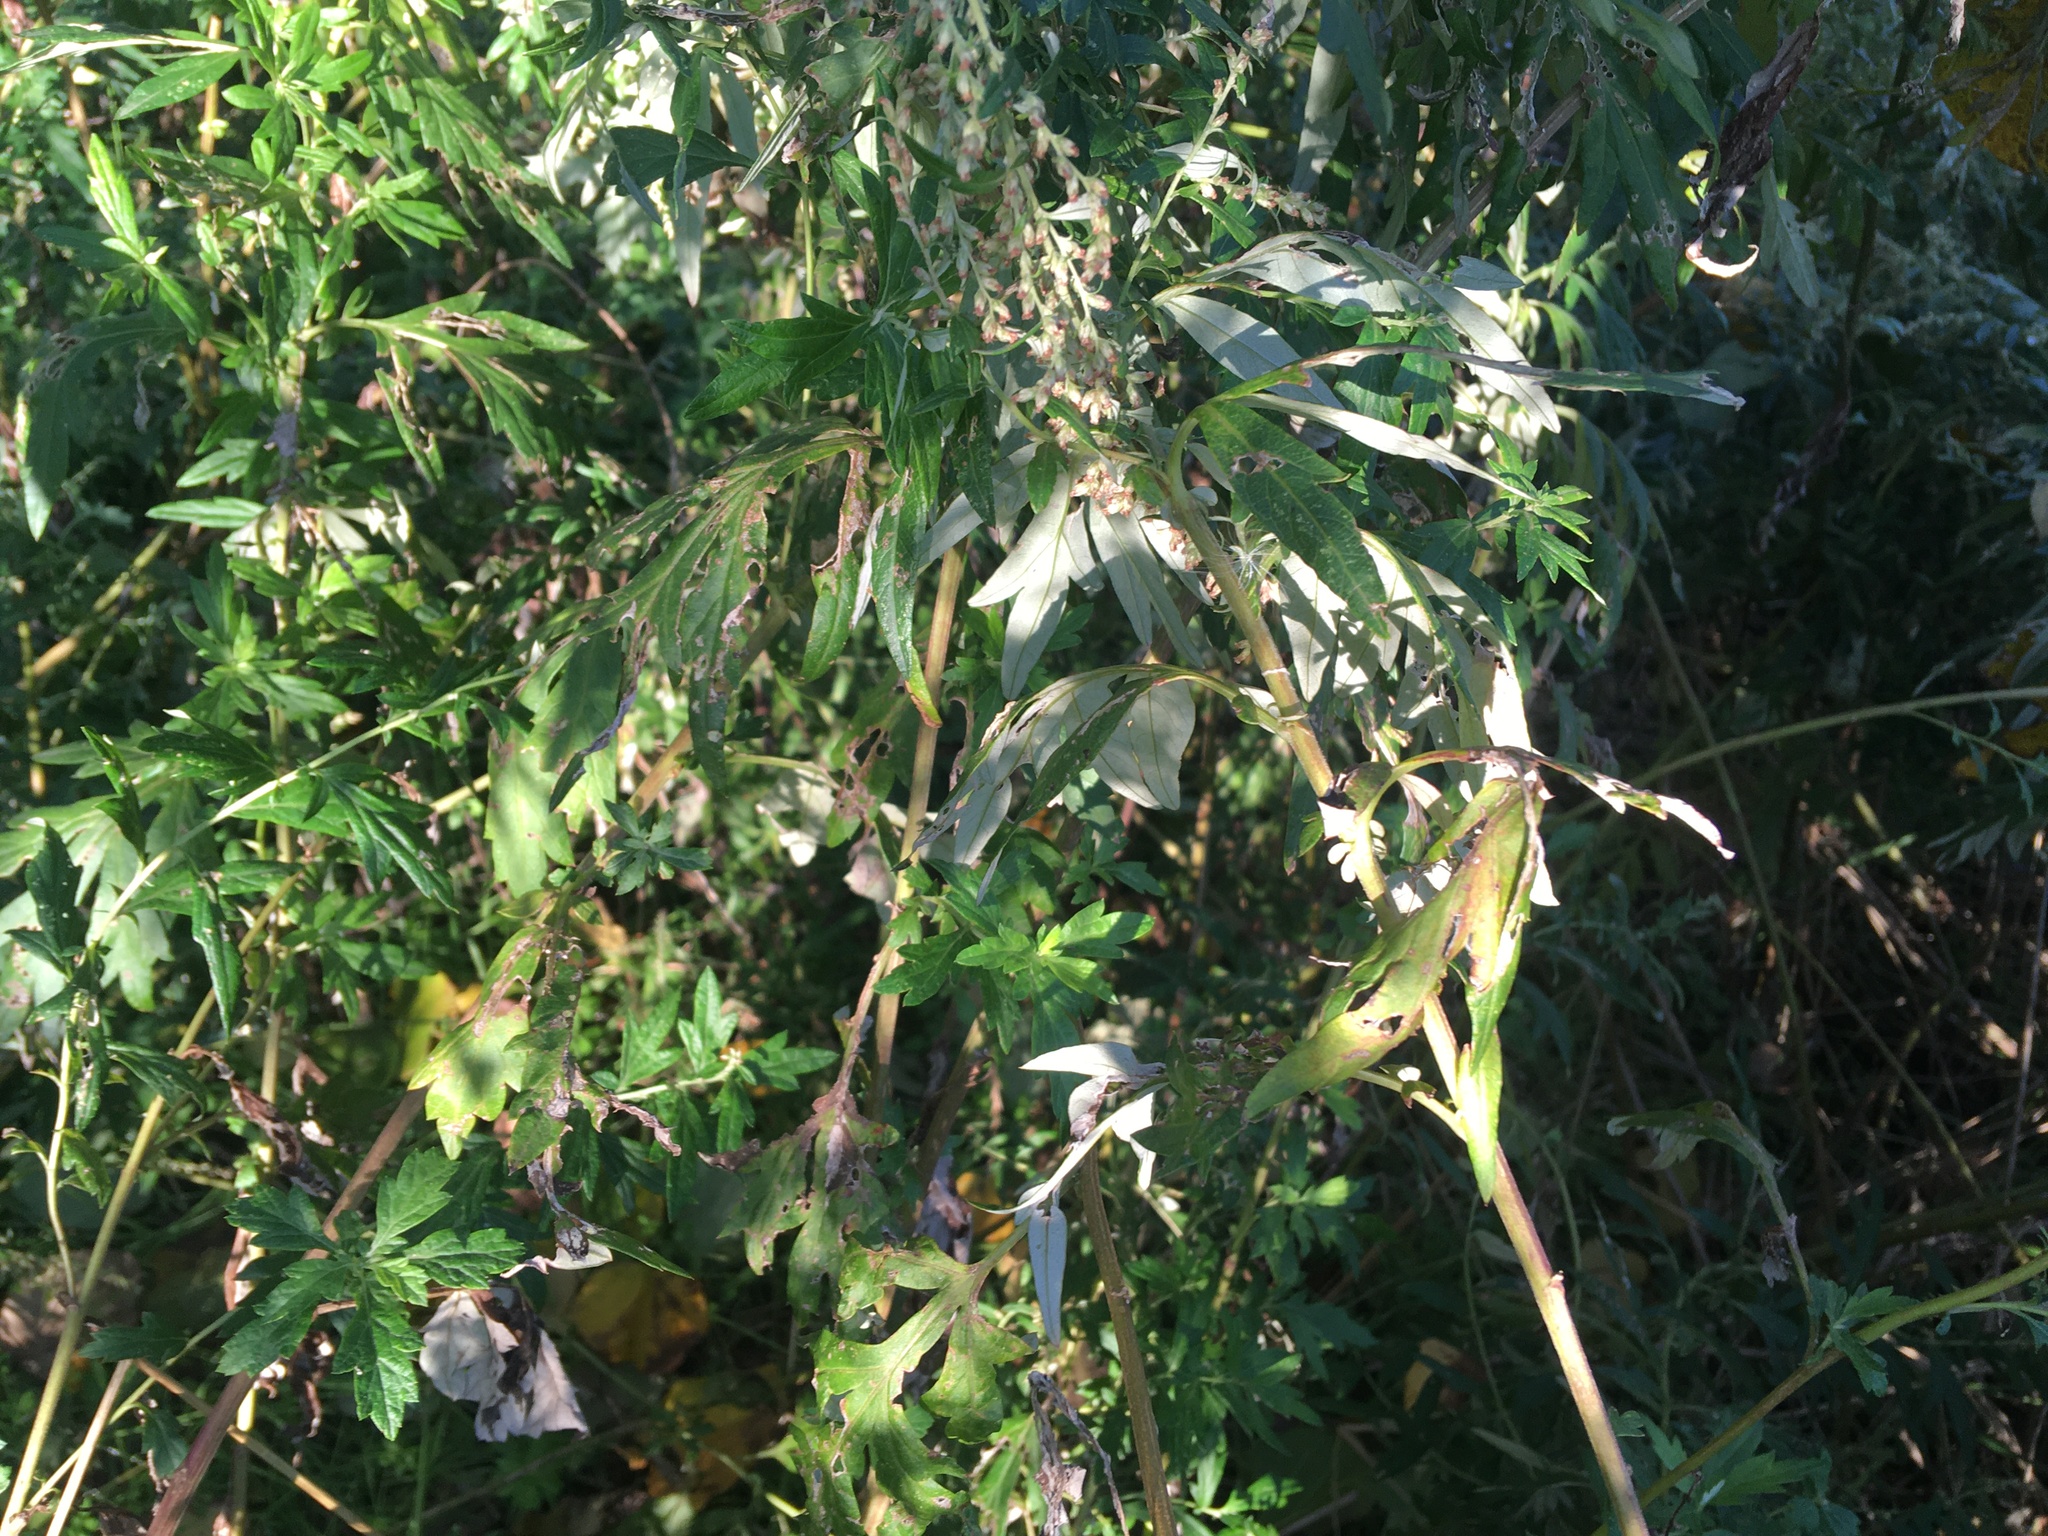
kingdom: Plantae
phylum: Tracheophyta
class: Magnoliopsida
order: Asterales
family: Asteraceae
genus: Artemisia
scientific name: Artemisia vulgaris
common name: Mugwort
